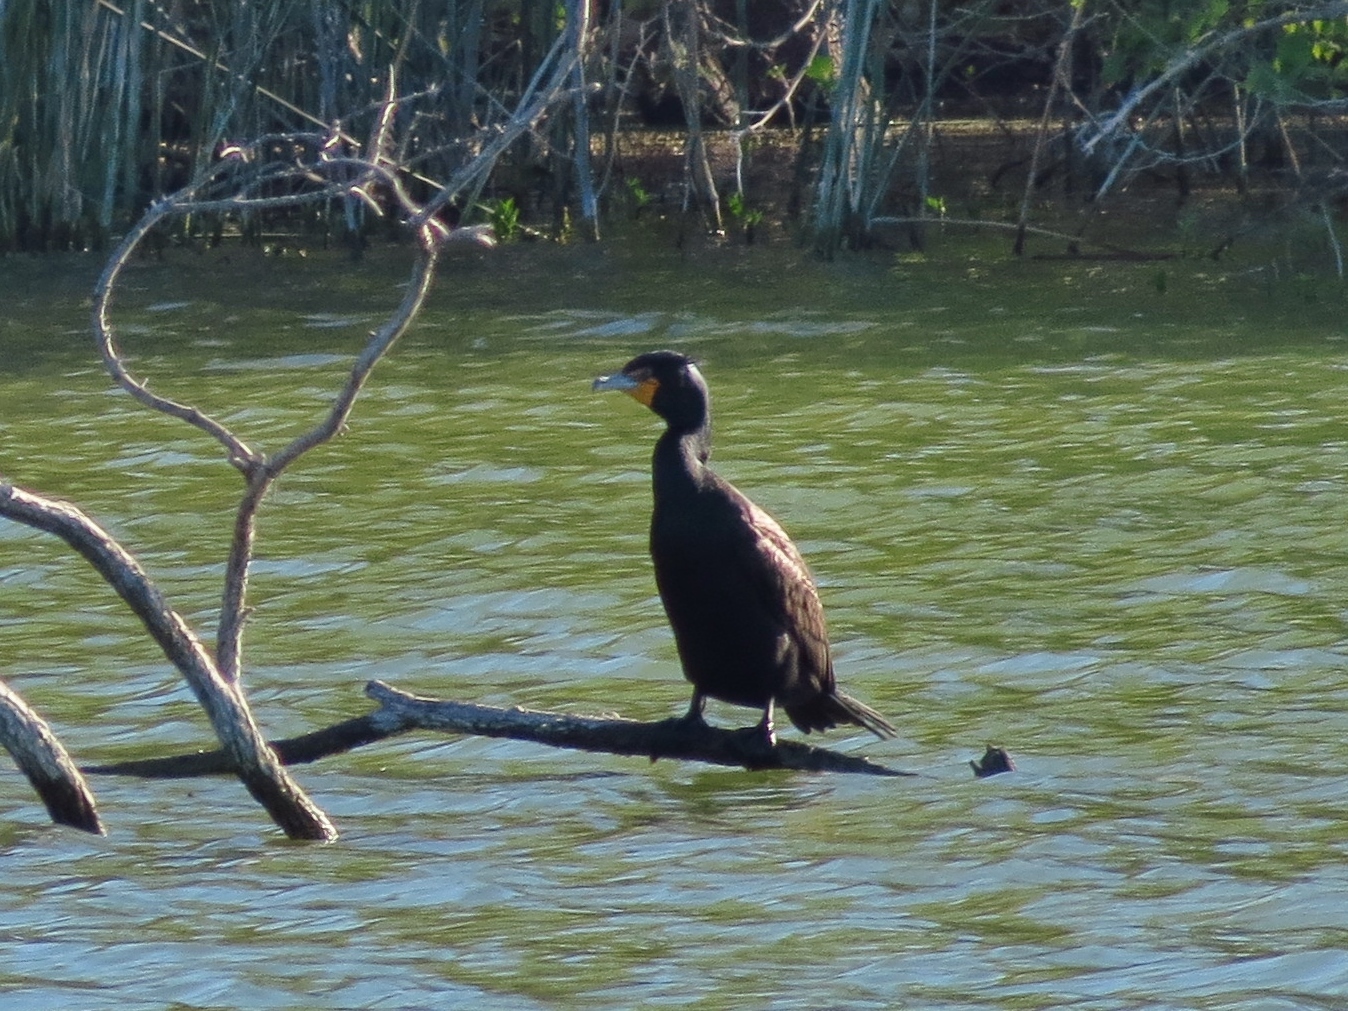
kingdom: Animalia
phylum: Chordata
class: Aves
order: Suliformes
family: Phalacrocoracidae
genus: Phalacrocorax
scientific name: Phalacrocorax auritus
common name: Double-crested cormorant
